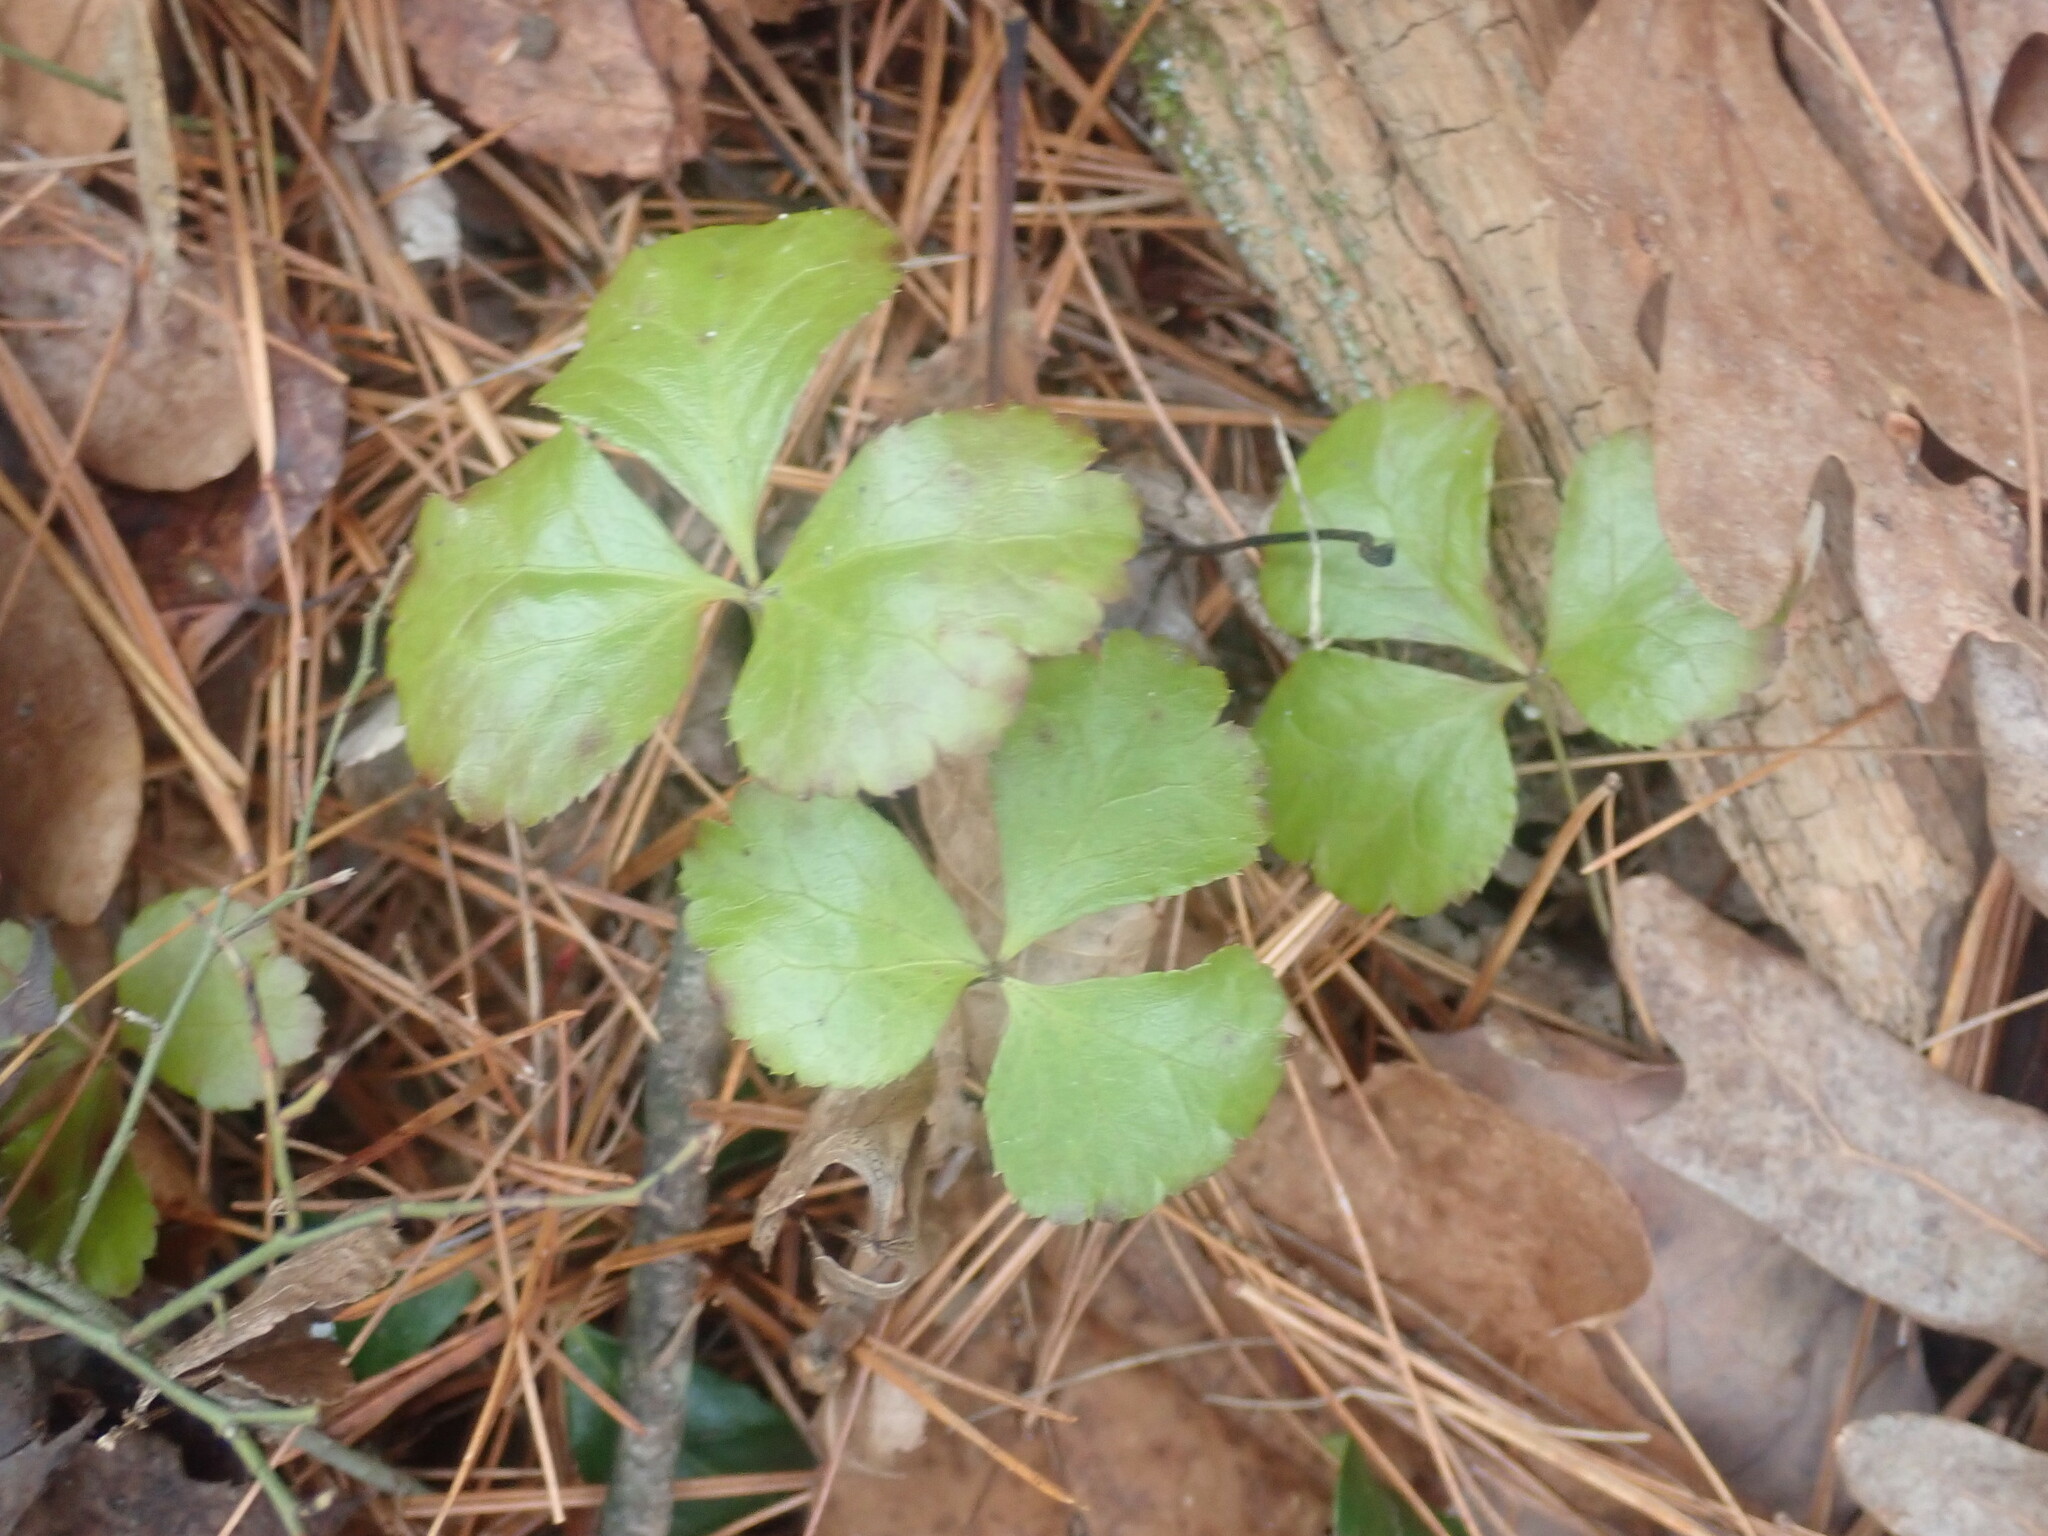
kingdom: Plantae
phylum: Tracheophyta
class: Magnoliopsida
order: Ranunculales
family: Ranunculaceae
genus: Coptis
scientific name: Coptis trifolia
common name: Canker-root
